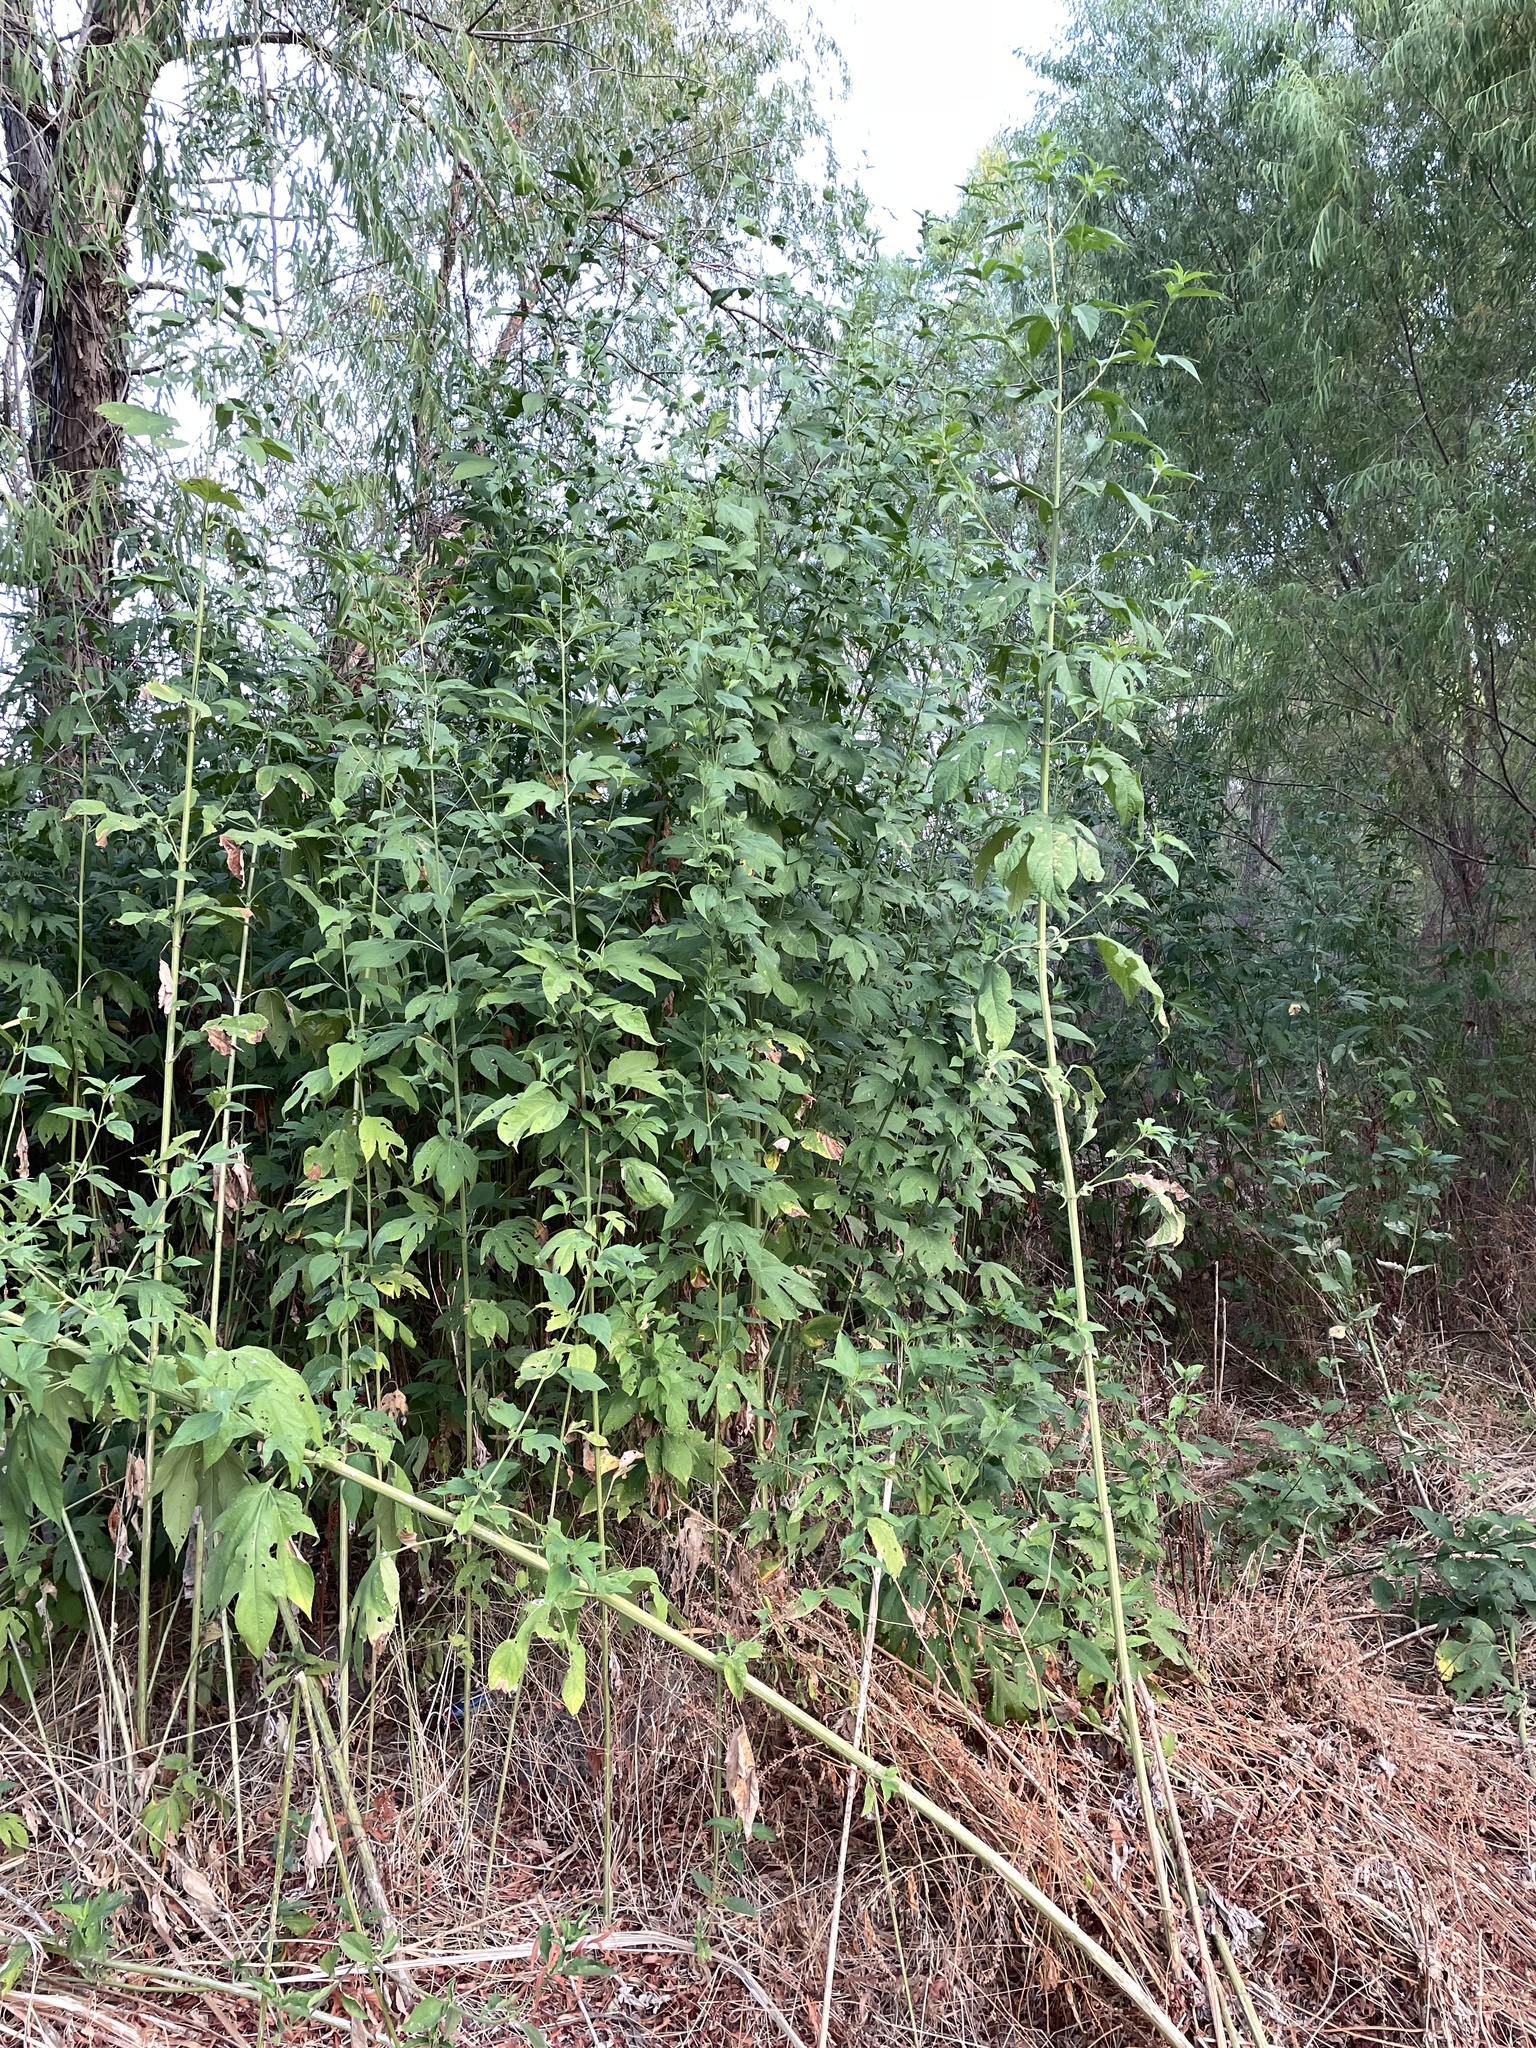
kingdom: Plantae
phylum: Tracheophyta
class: Magnoliopsida
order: Asterales
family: Asteraceae
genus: Ambrosia
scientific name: Ambrosia trifida
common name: Giant ragweed
